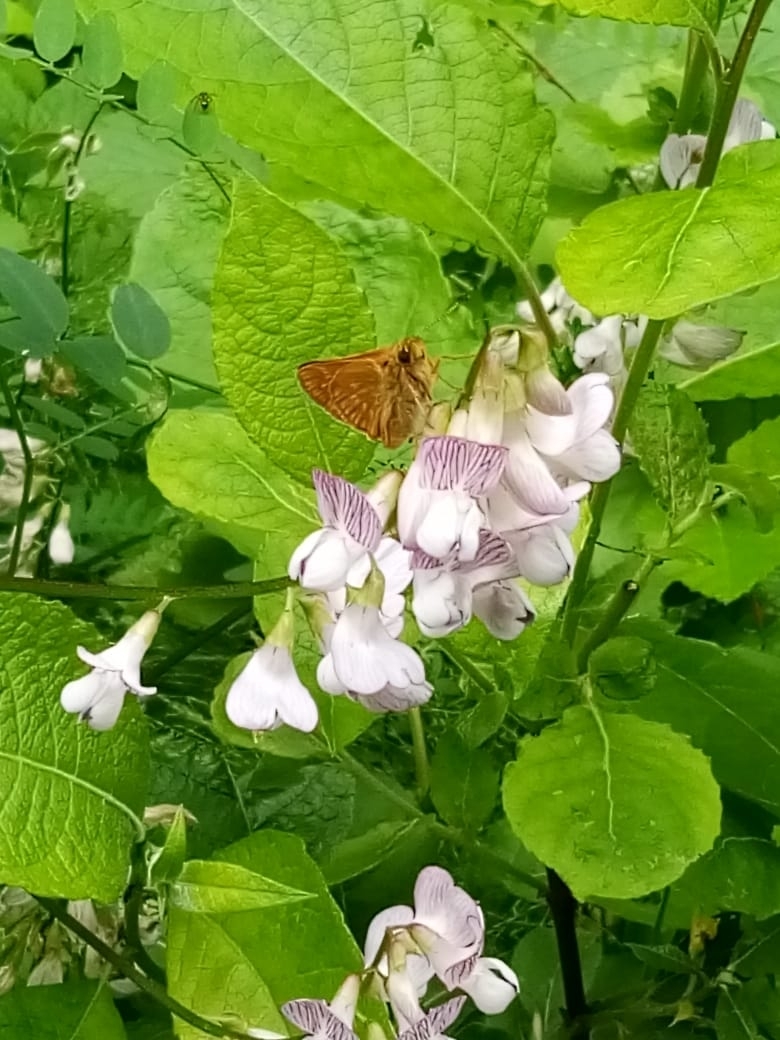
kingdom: Animalia
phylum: Arthropoda
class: Insecta
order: Lepidoptera
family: Hesperiidae
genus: Ochlodes
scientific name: Ochlodes venata
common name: Large skipper
